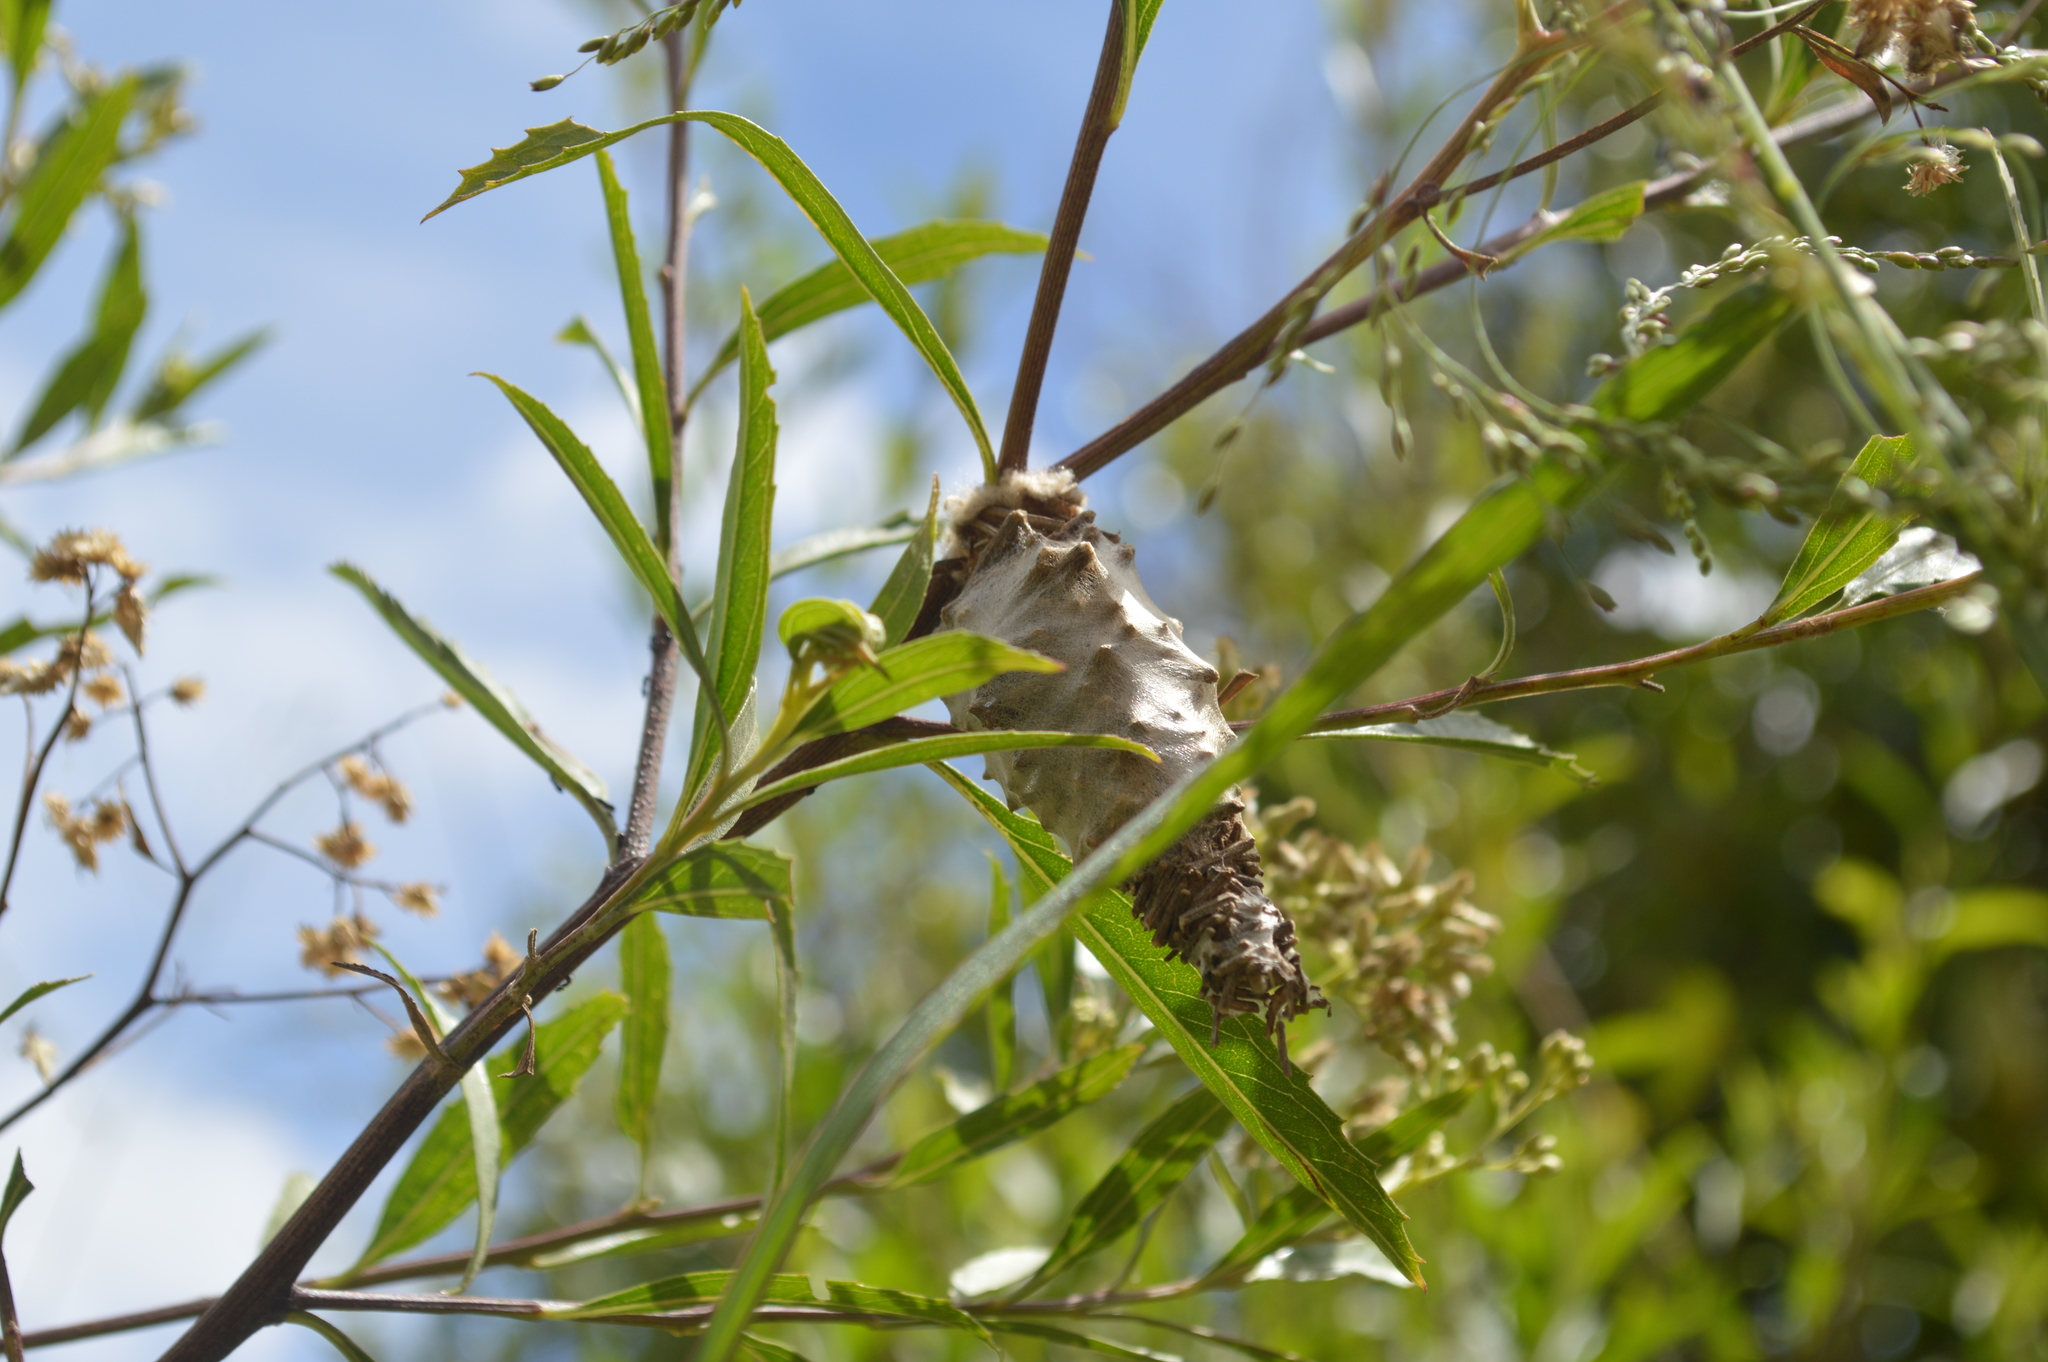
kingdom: Animalia
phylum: Arthropoda
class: Insecta
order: Lepidoptera
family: Psychidae
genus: Oiketicus
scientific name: Oiketicus
